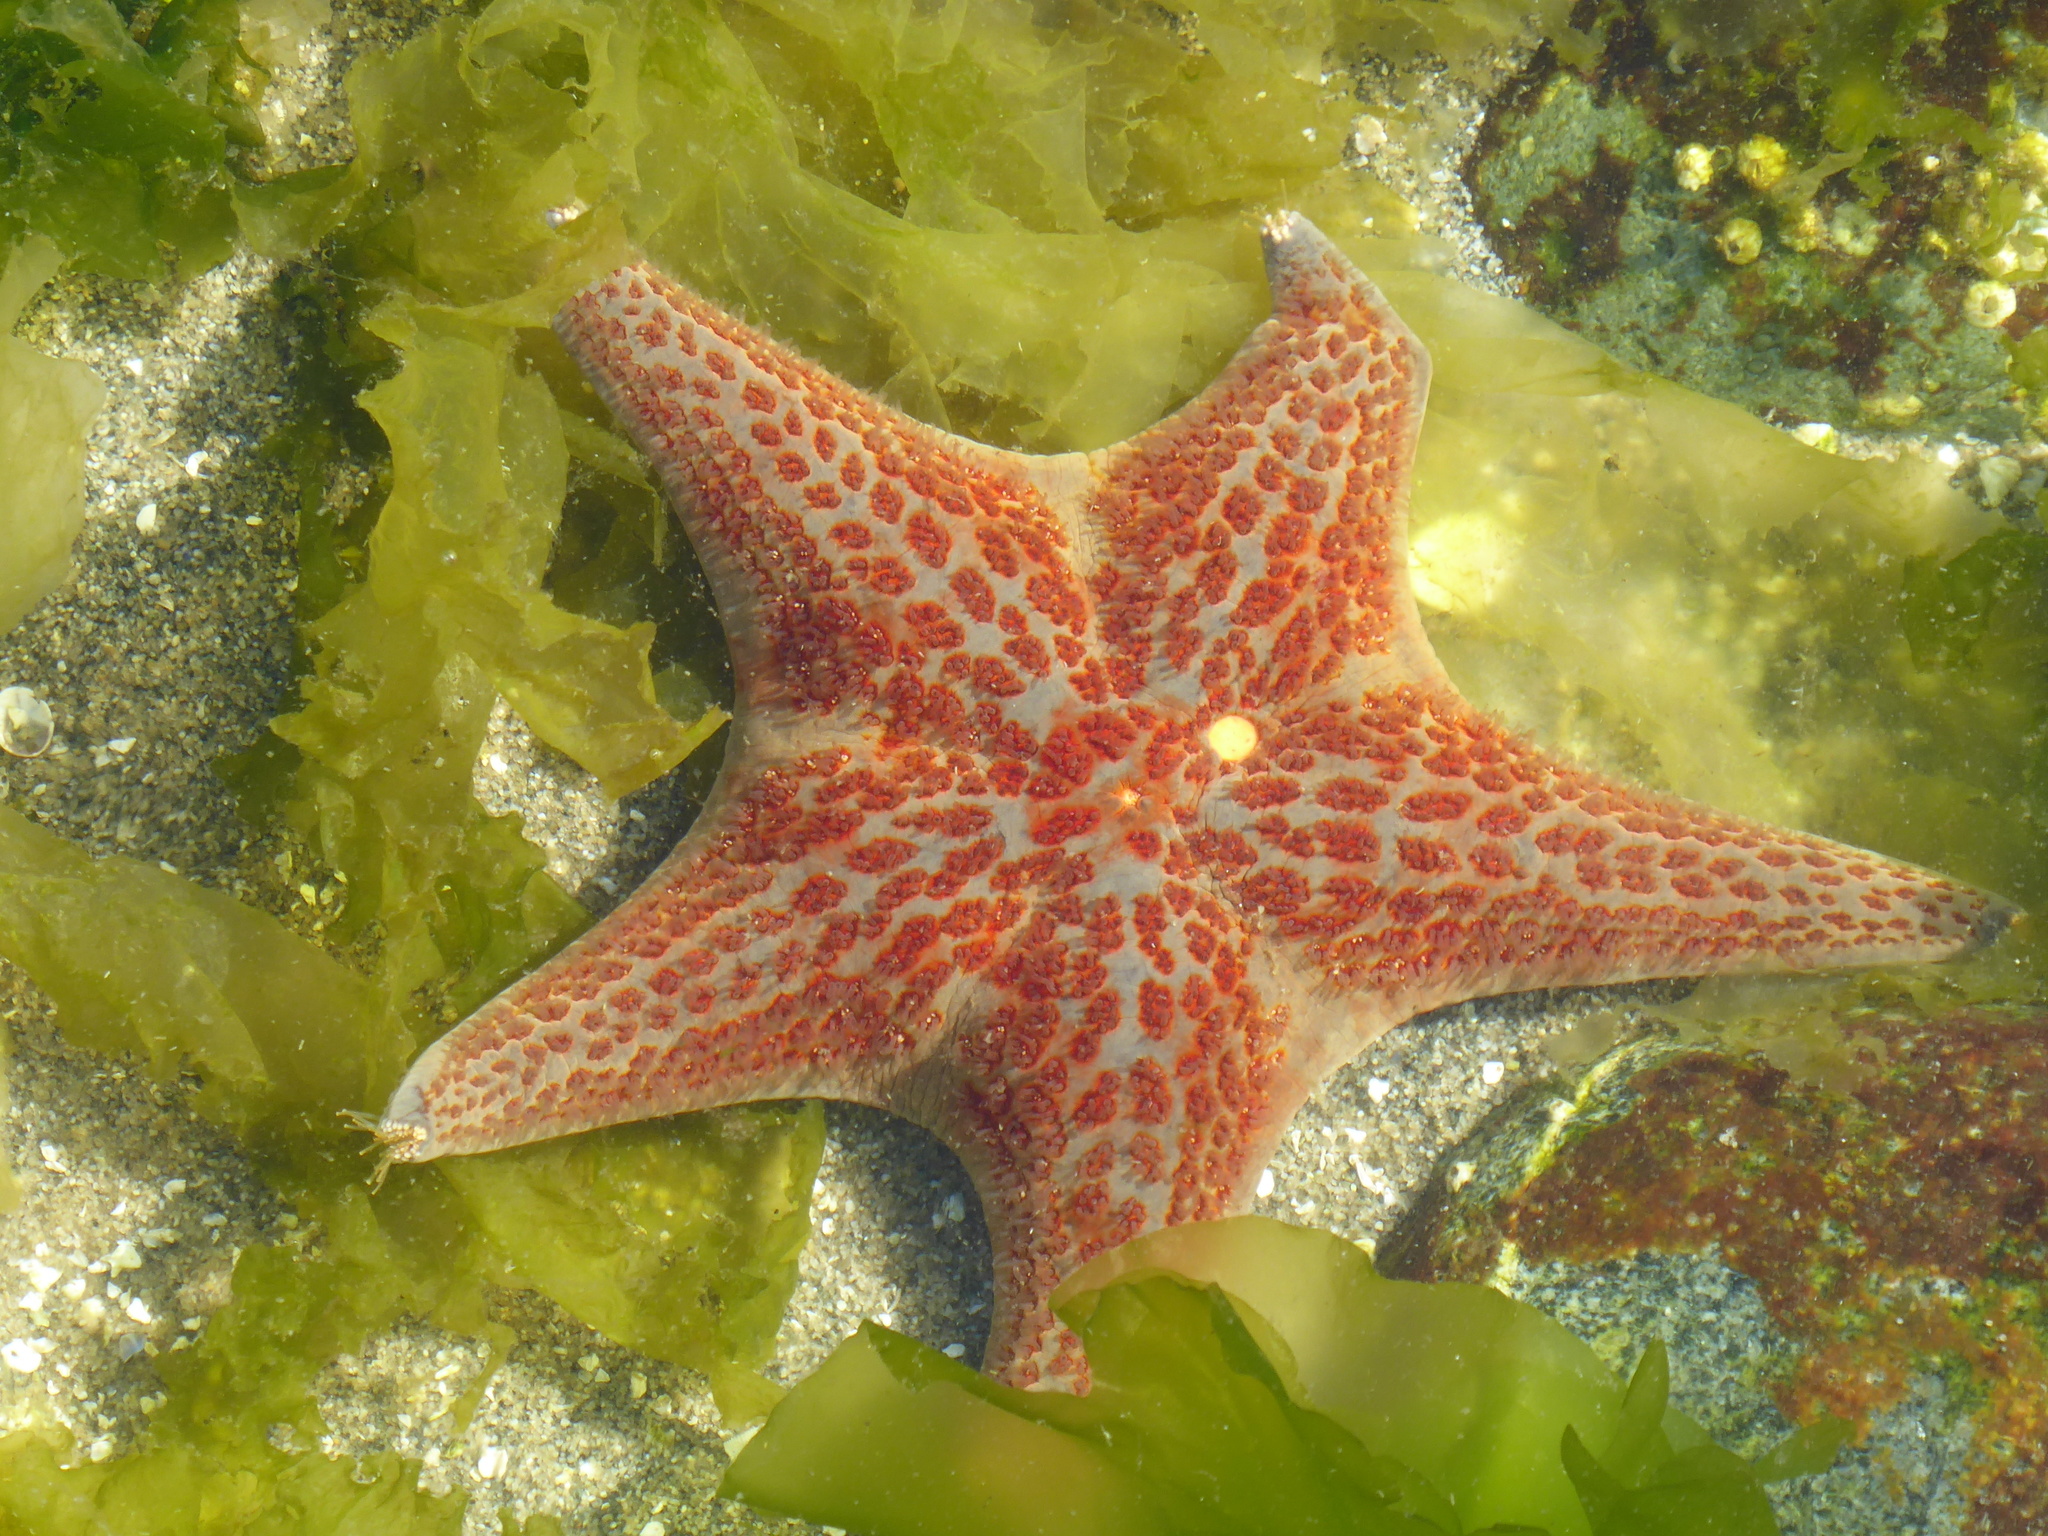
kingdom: Animalia
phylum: Echinodermata
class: Asteroidea
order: Valvatida
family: Asteropseidae
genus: Dermasterias
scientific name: Dermasterias imbricata
